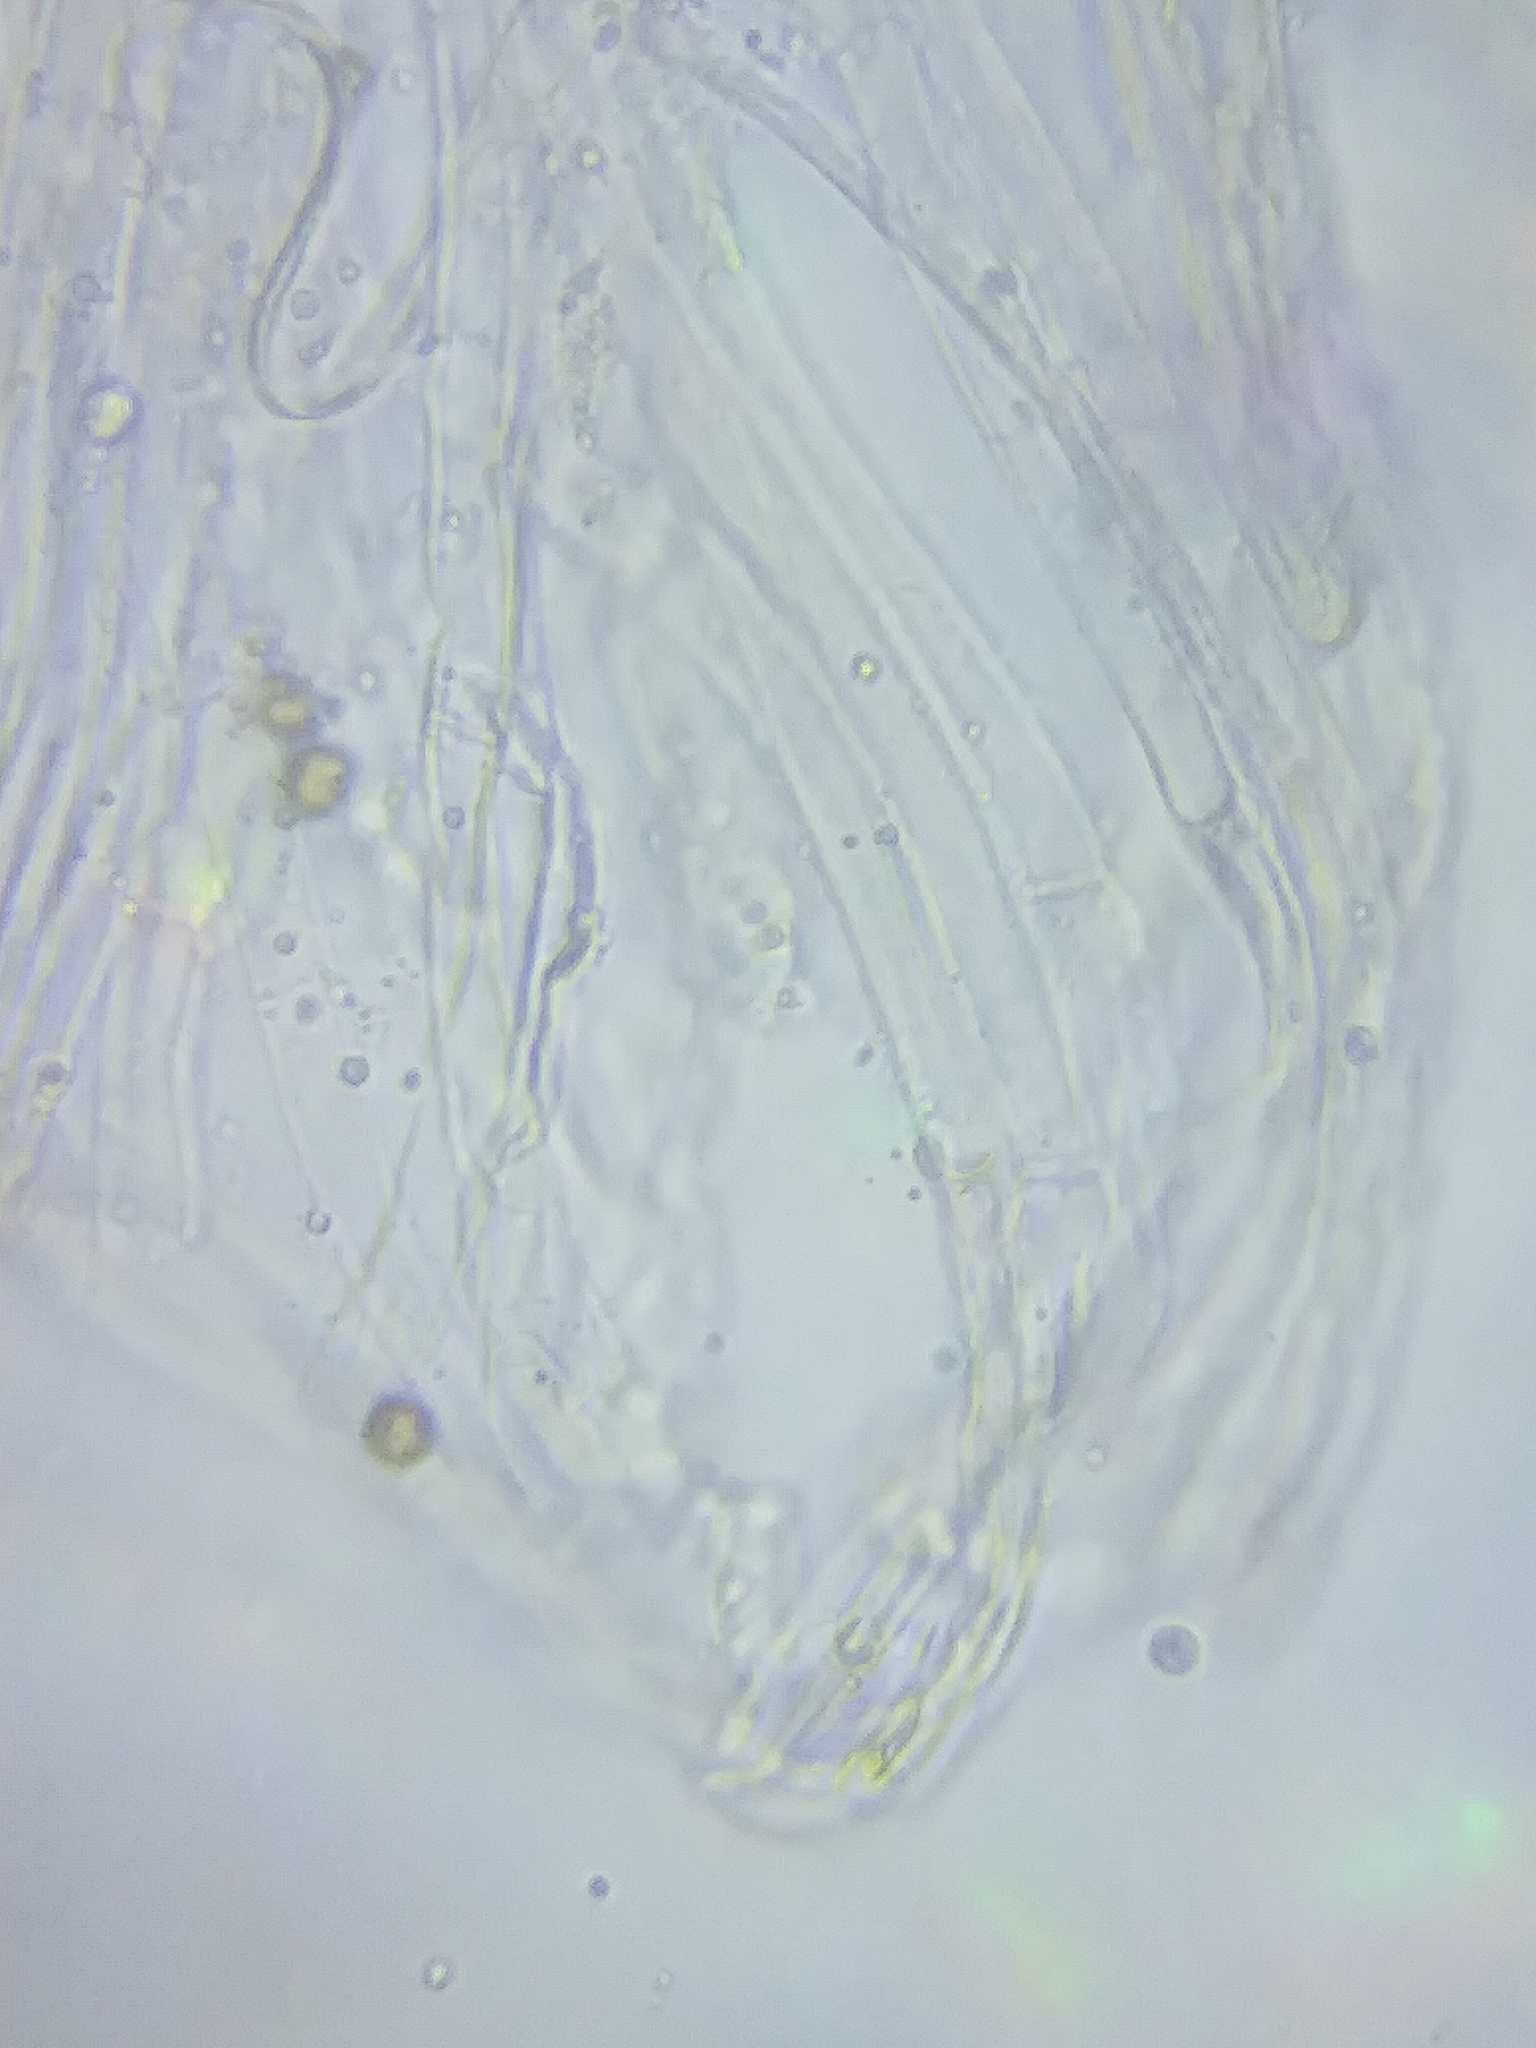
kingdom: Fungi
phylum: Basidiomycota
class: Agaricomycetes
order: Agaricales
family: Cortinariaceae
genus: Cortinarius
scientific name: Cortinarius firmus
